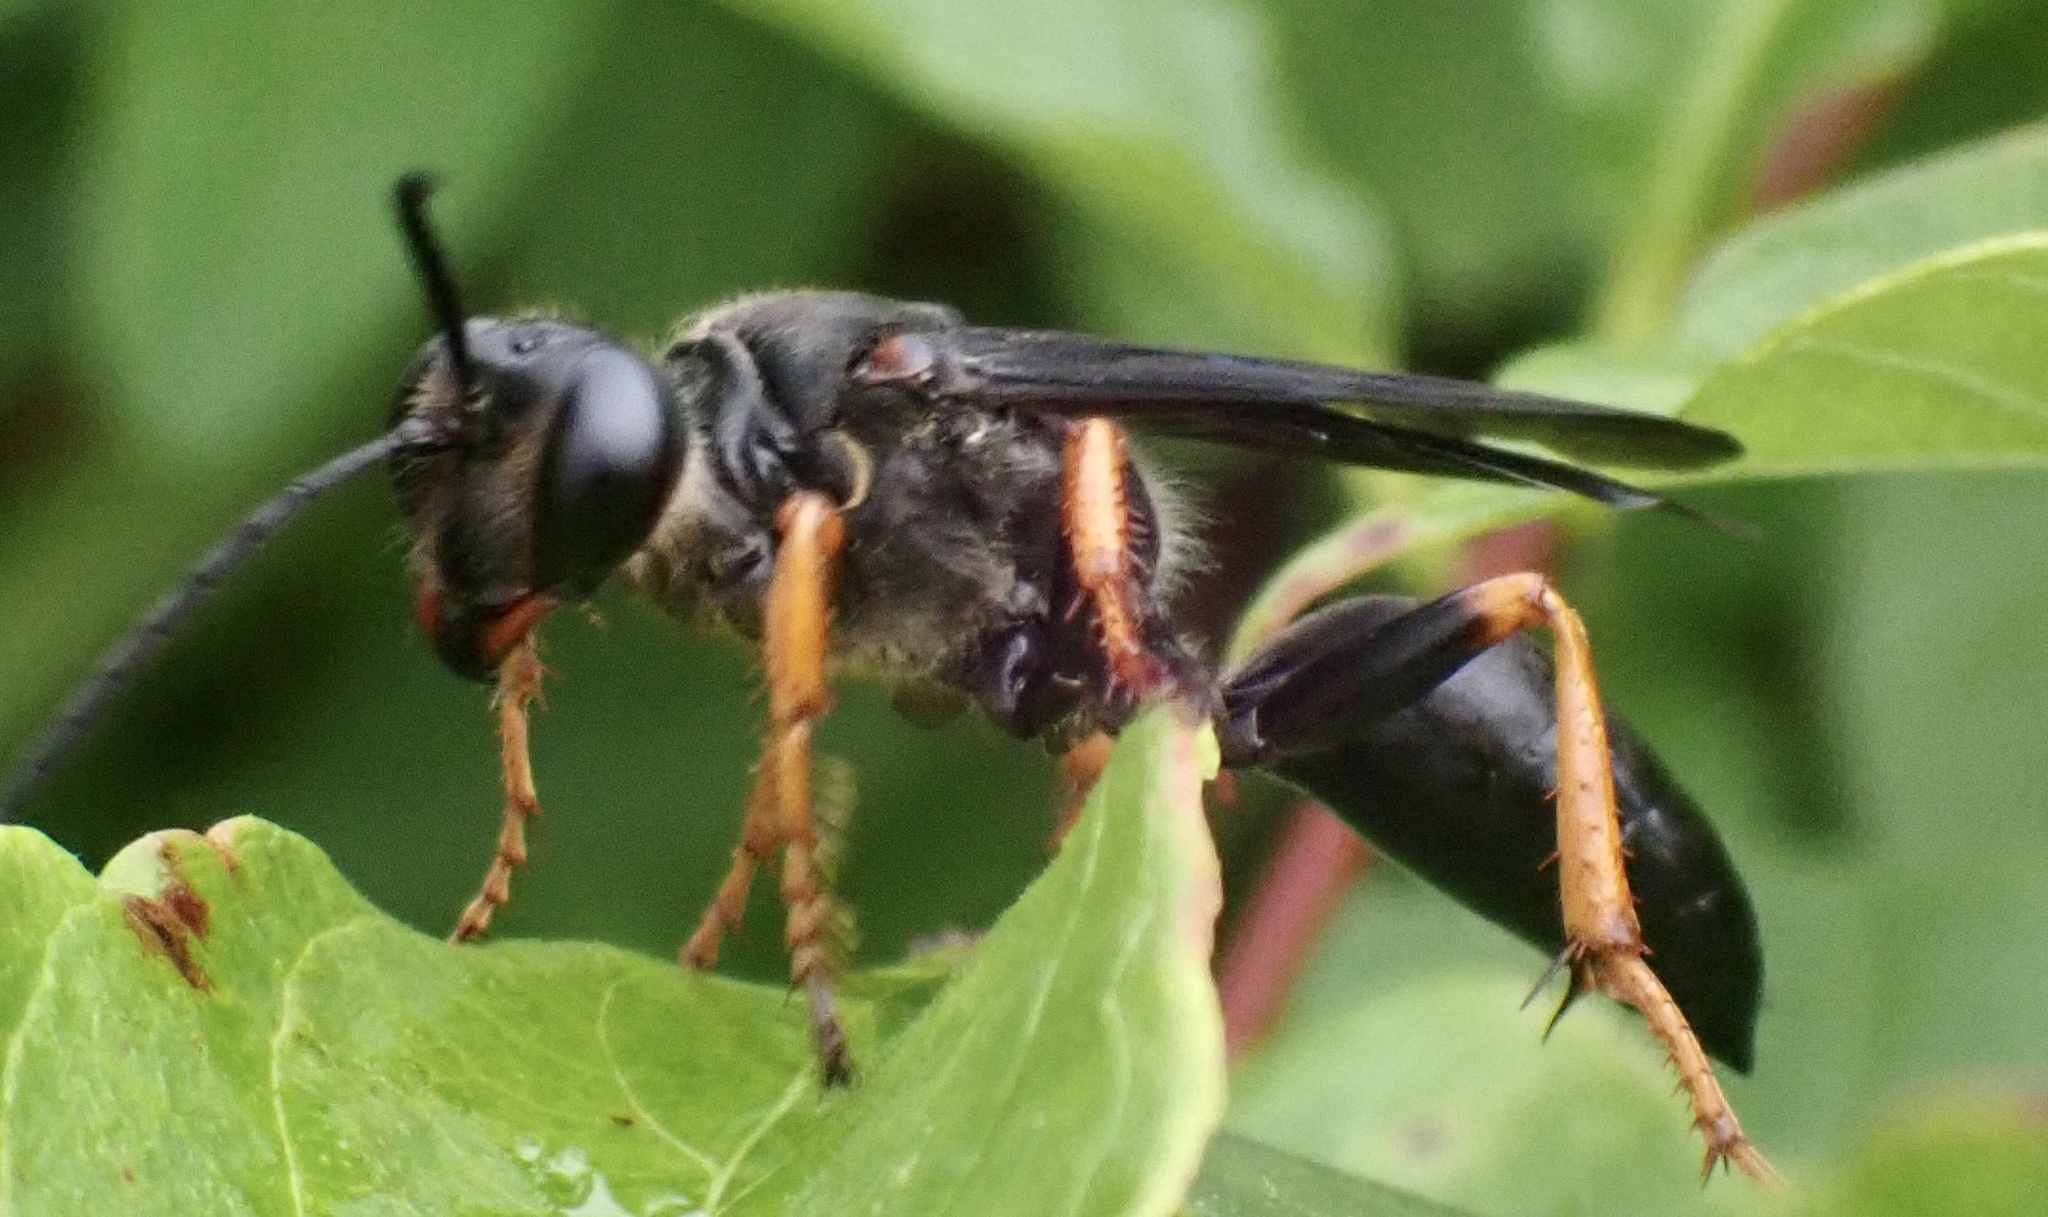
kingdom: Animalia
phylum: Arthropoda
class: Insecta
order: Hymenoptera
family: Sphecidae
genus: Sphex
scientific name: Sphex nudus
